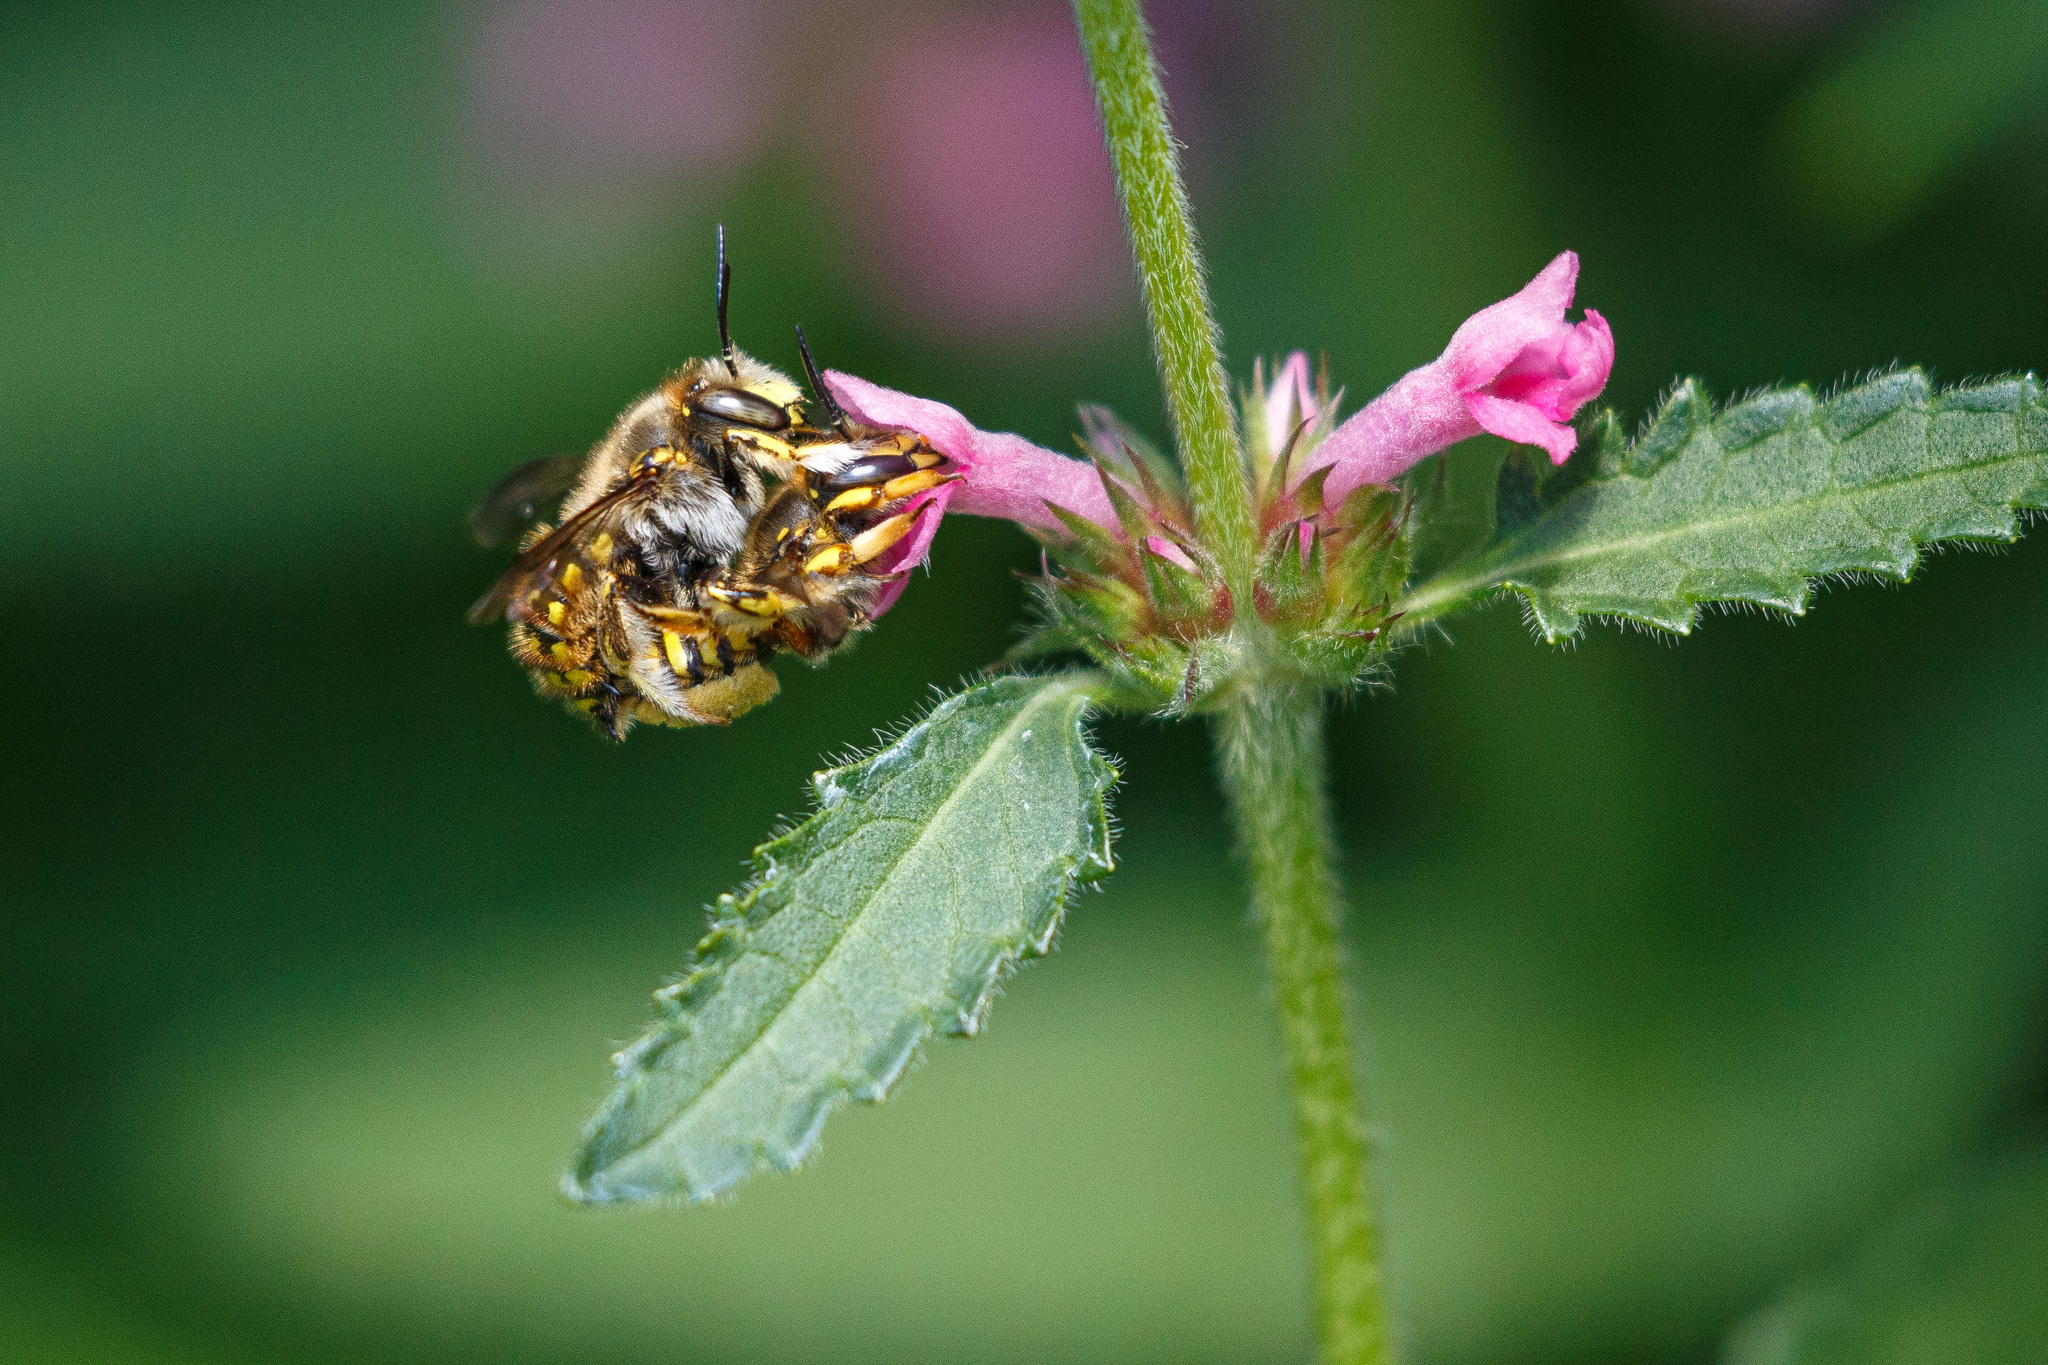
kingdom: Animalia
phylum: Arthropoda
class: Insecta
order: Hymenoptera
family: Megachilidae
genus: Anthidium
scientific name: Anthidium manicatum
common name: Wool carder bee
